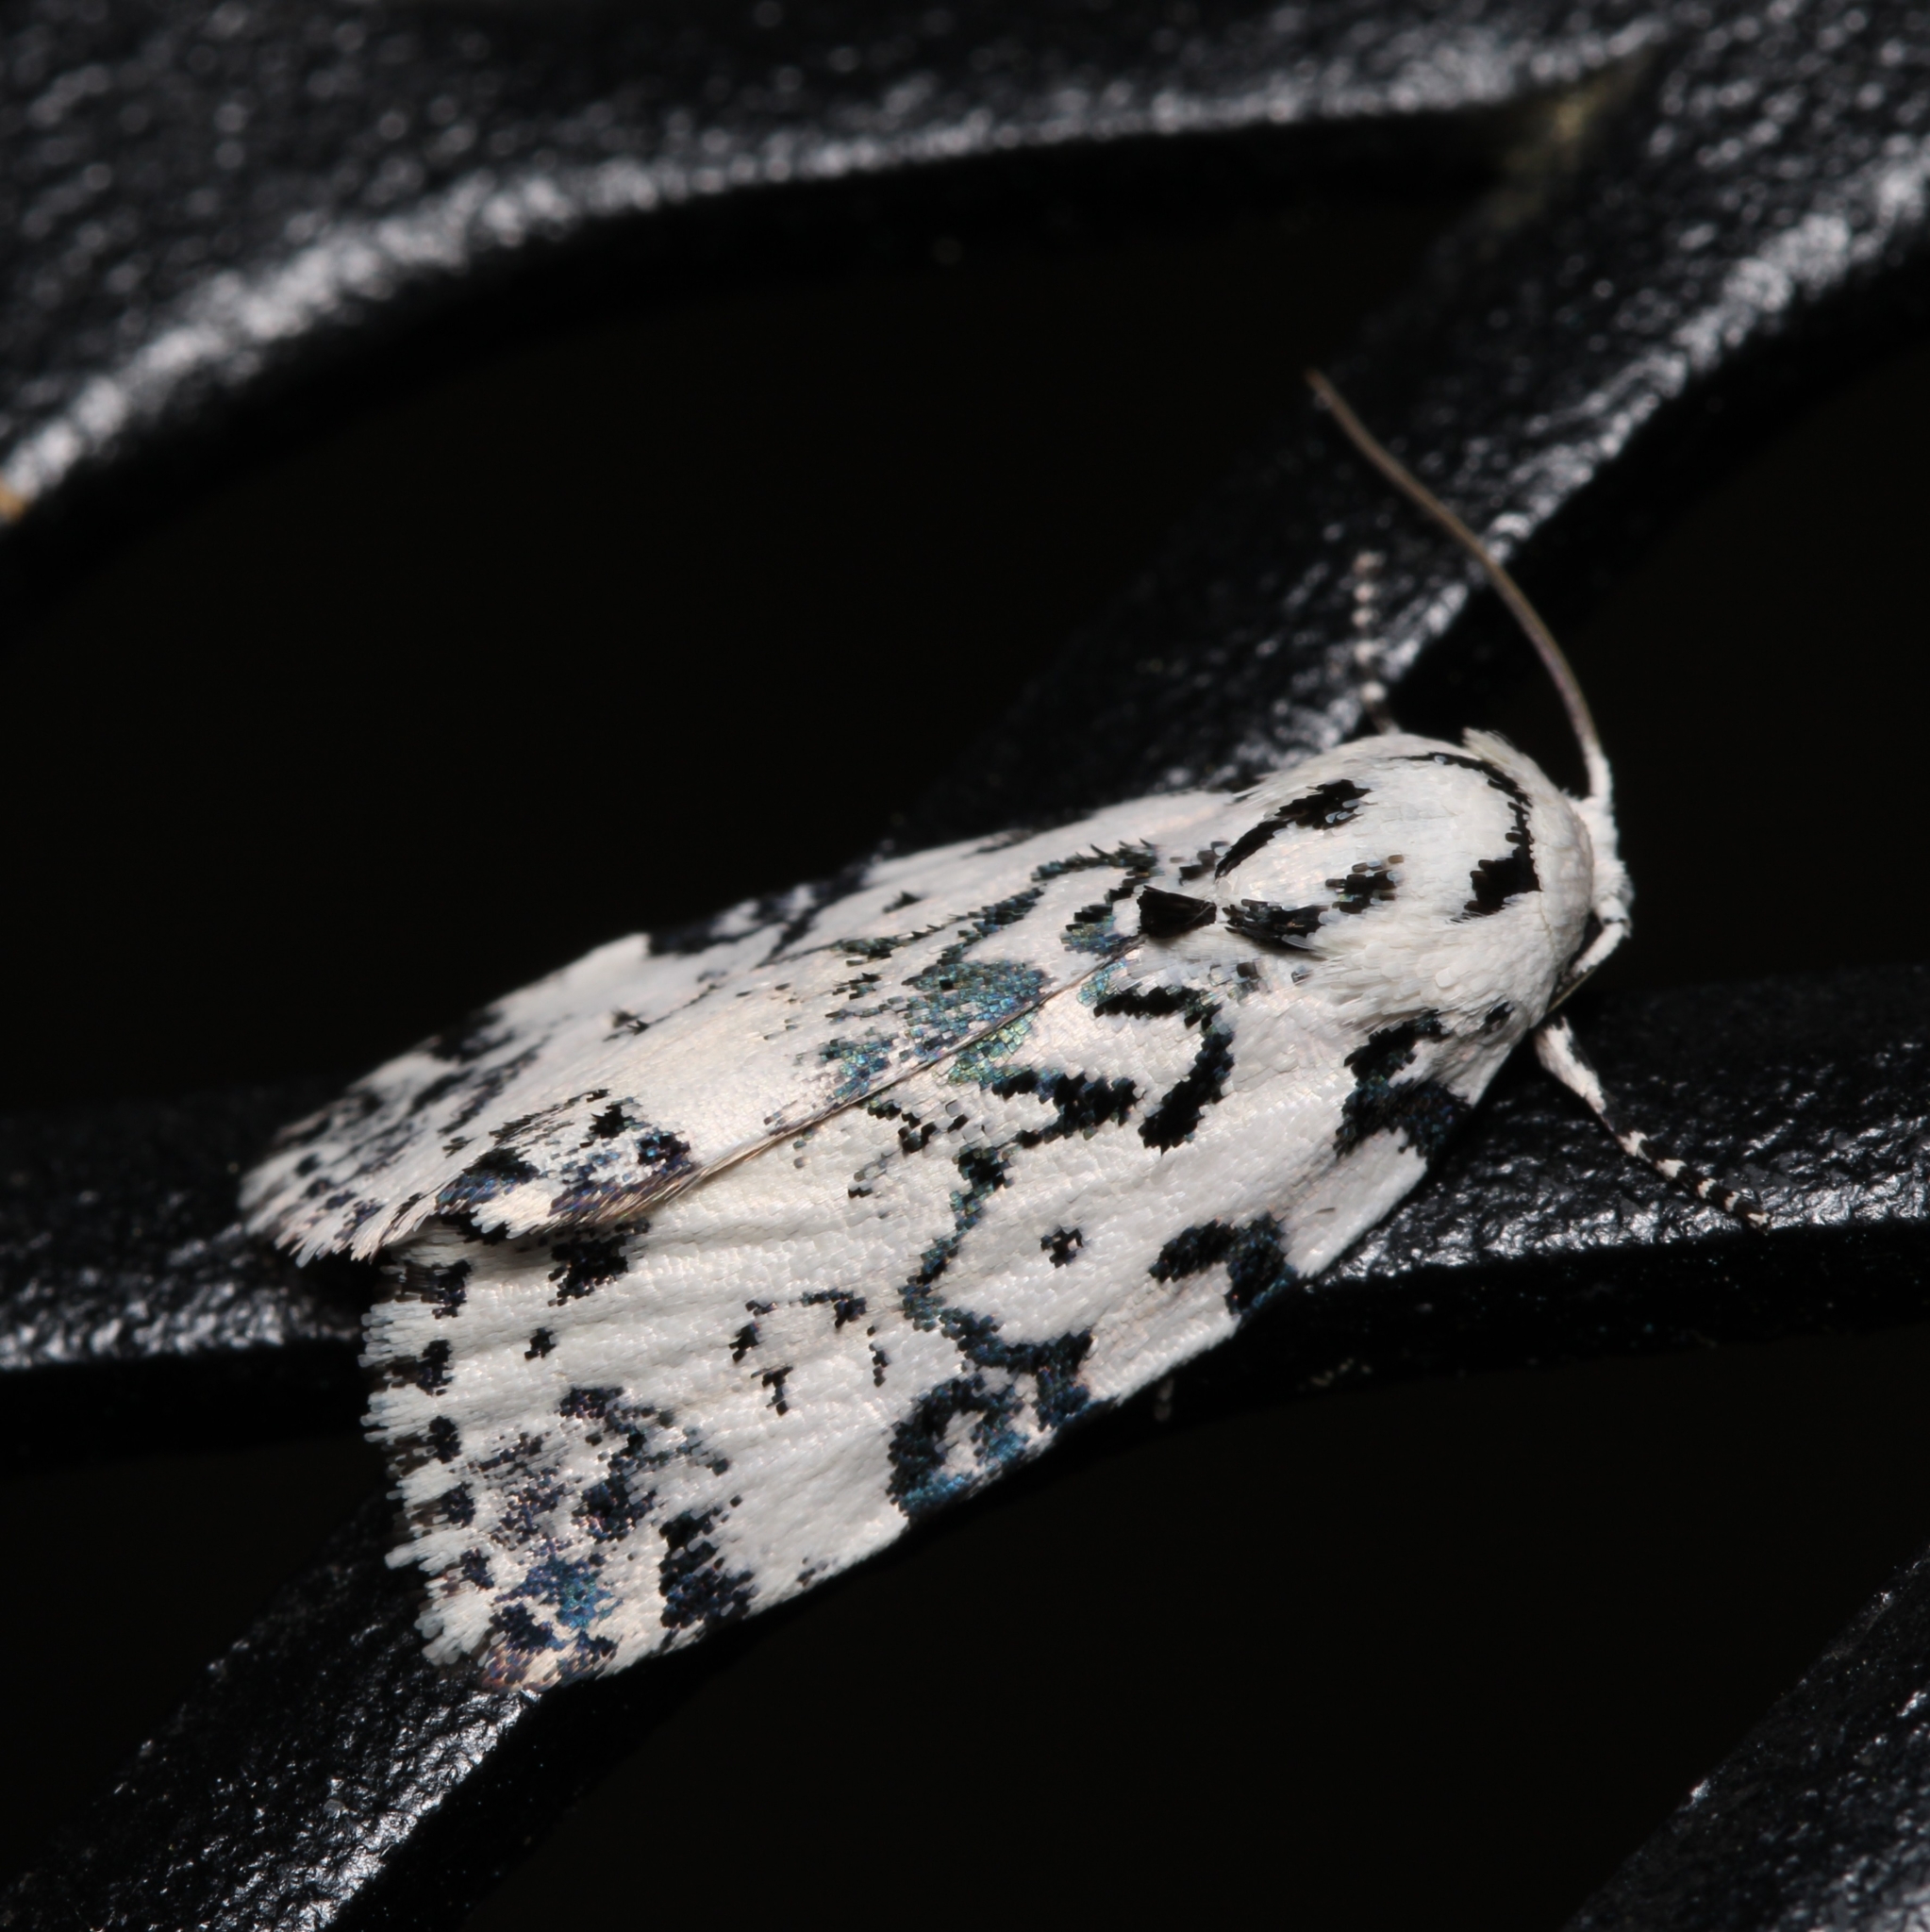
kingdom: Animalia
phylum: Arthropoda
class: Insecta
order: Lepidoptera
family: Noctuidae
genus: Polygrammate
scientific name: Polygrammate hebraeicum
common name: Hebrew moth
